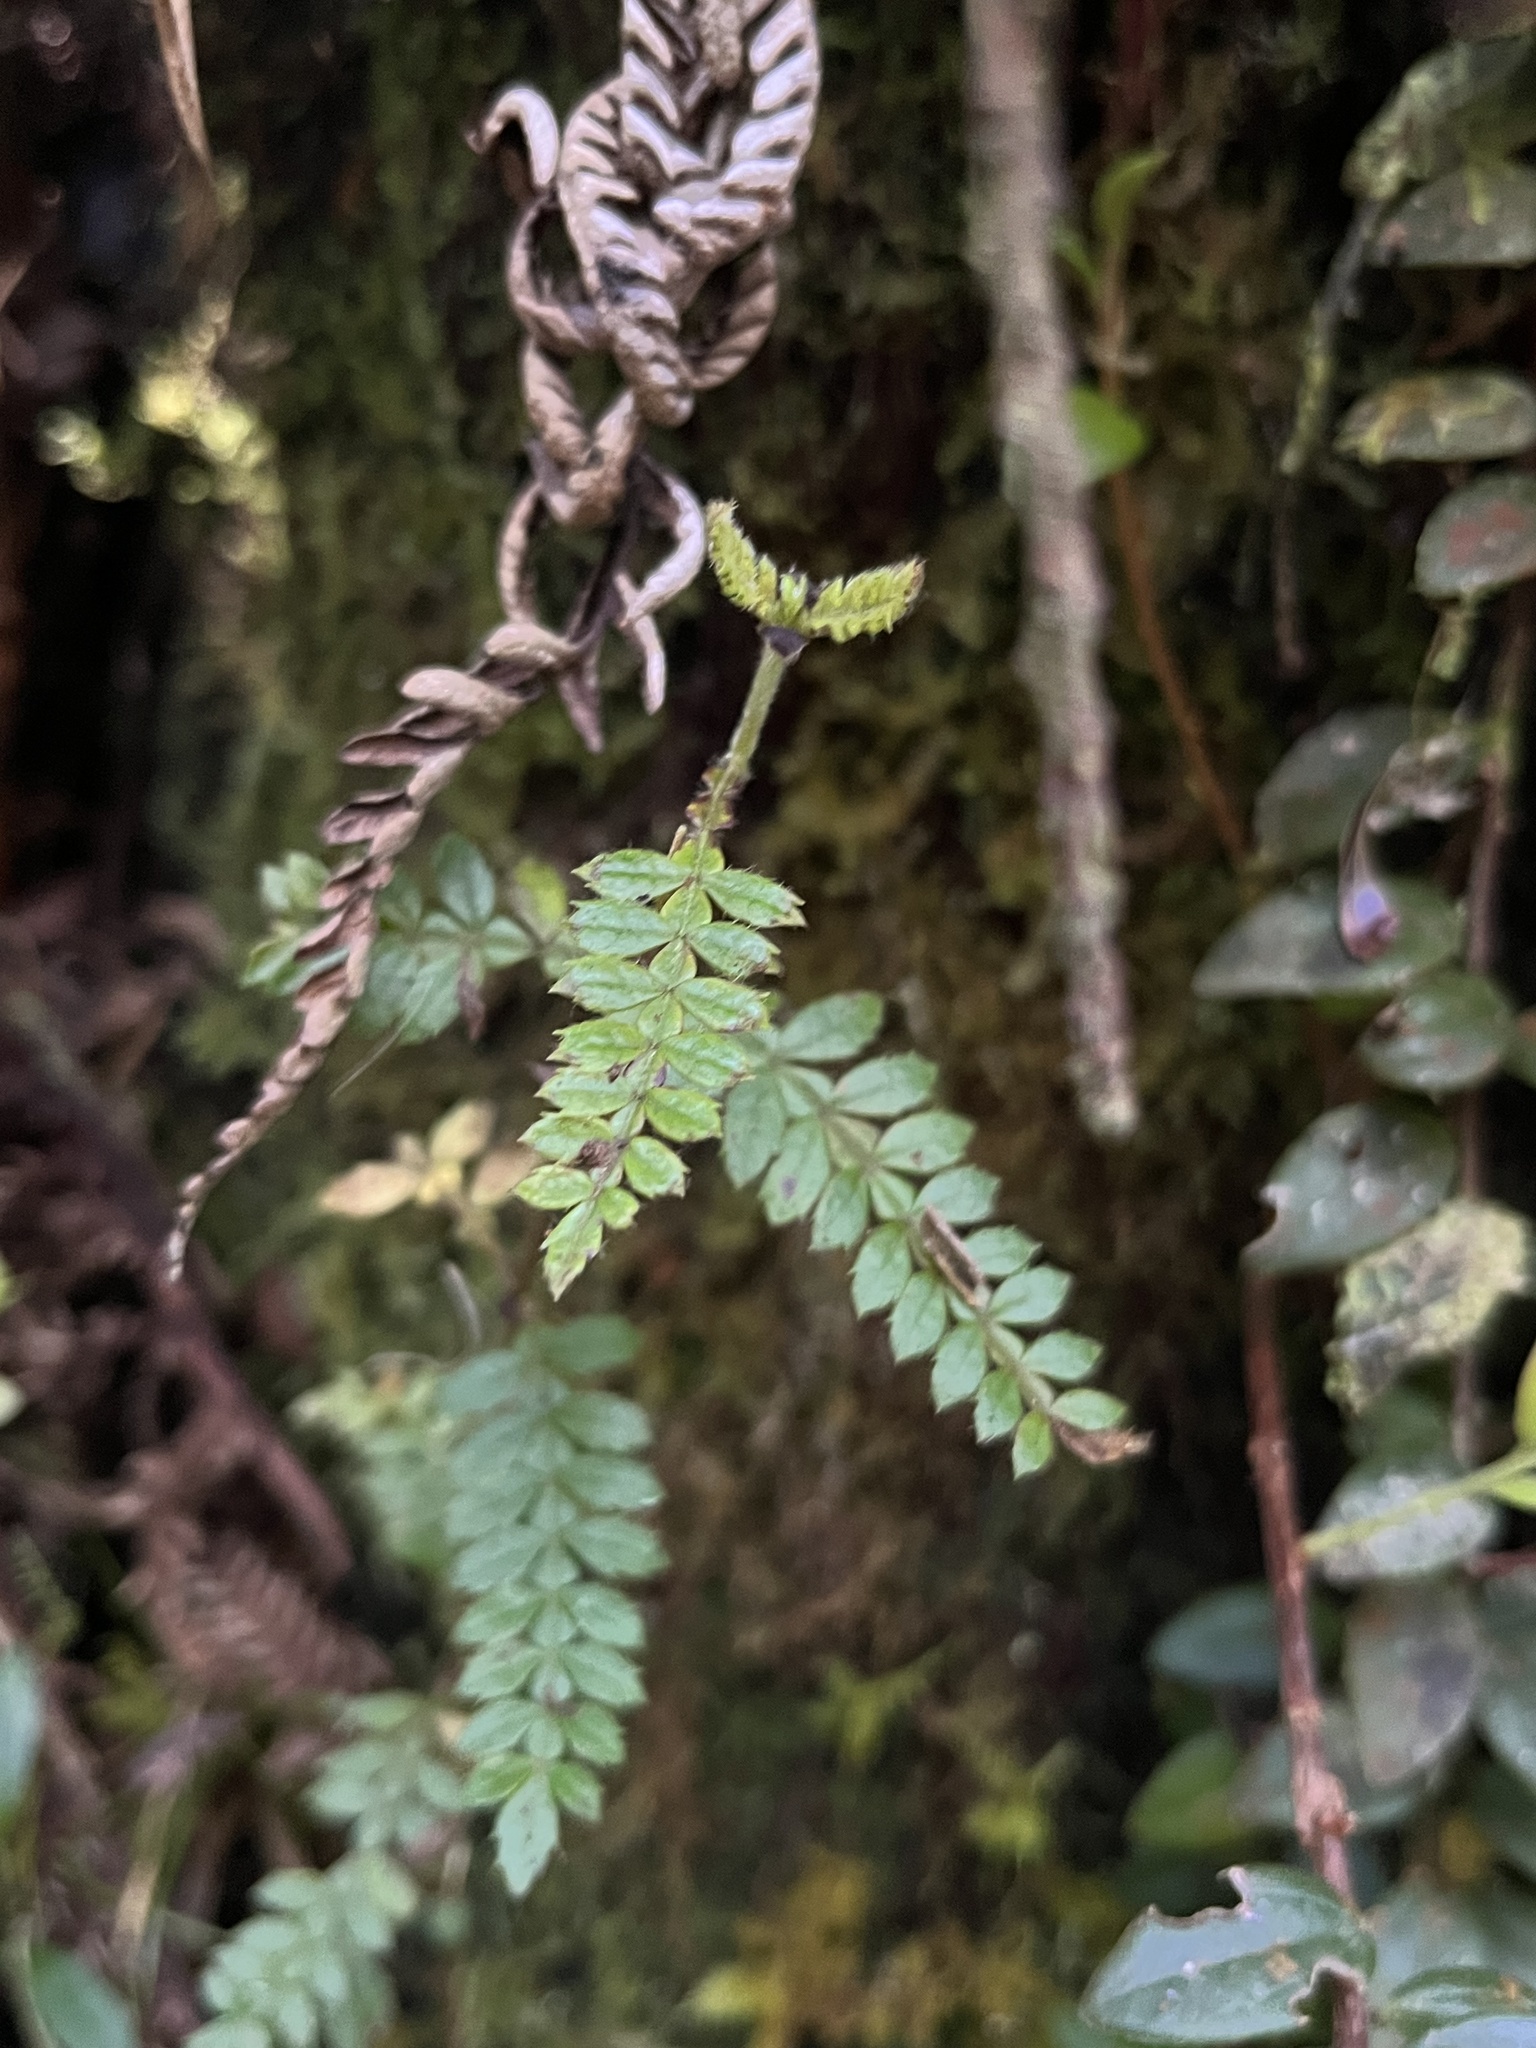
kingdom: Plantae
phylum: Tracheophyta
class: Magnoliopsida
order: Oxalidales
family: Cunoniaceae
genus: Weinmannia
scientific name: Weinmannia tomentosa
